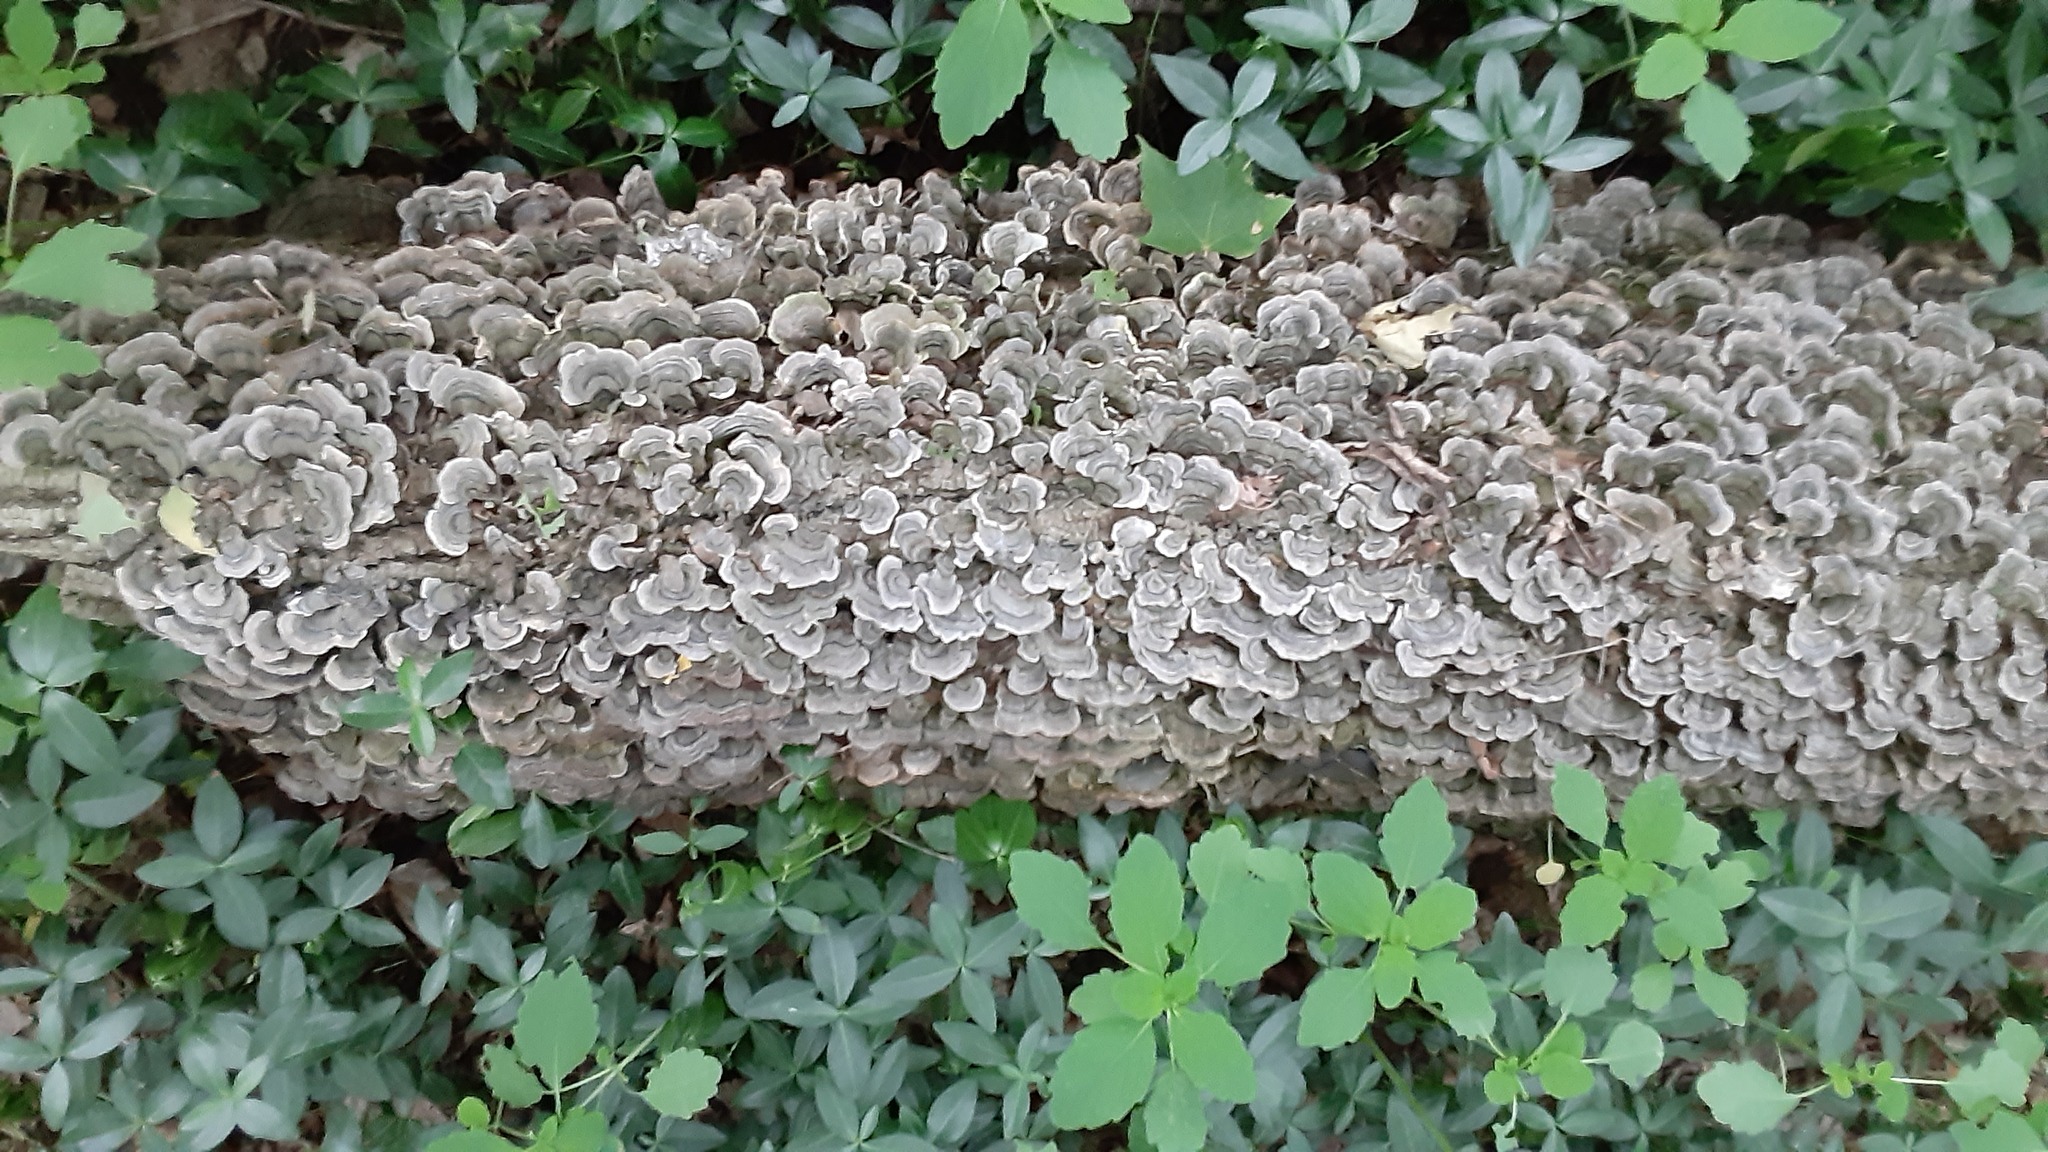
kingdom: Fungi
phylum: Basidiomycota
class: Agaricomycetes
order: Polyporales
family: Polyporaceae
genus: Trametes
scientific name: Trametes versicolor
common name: Turkeytail
